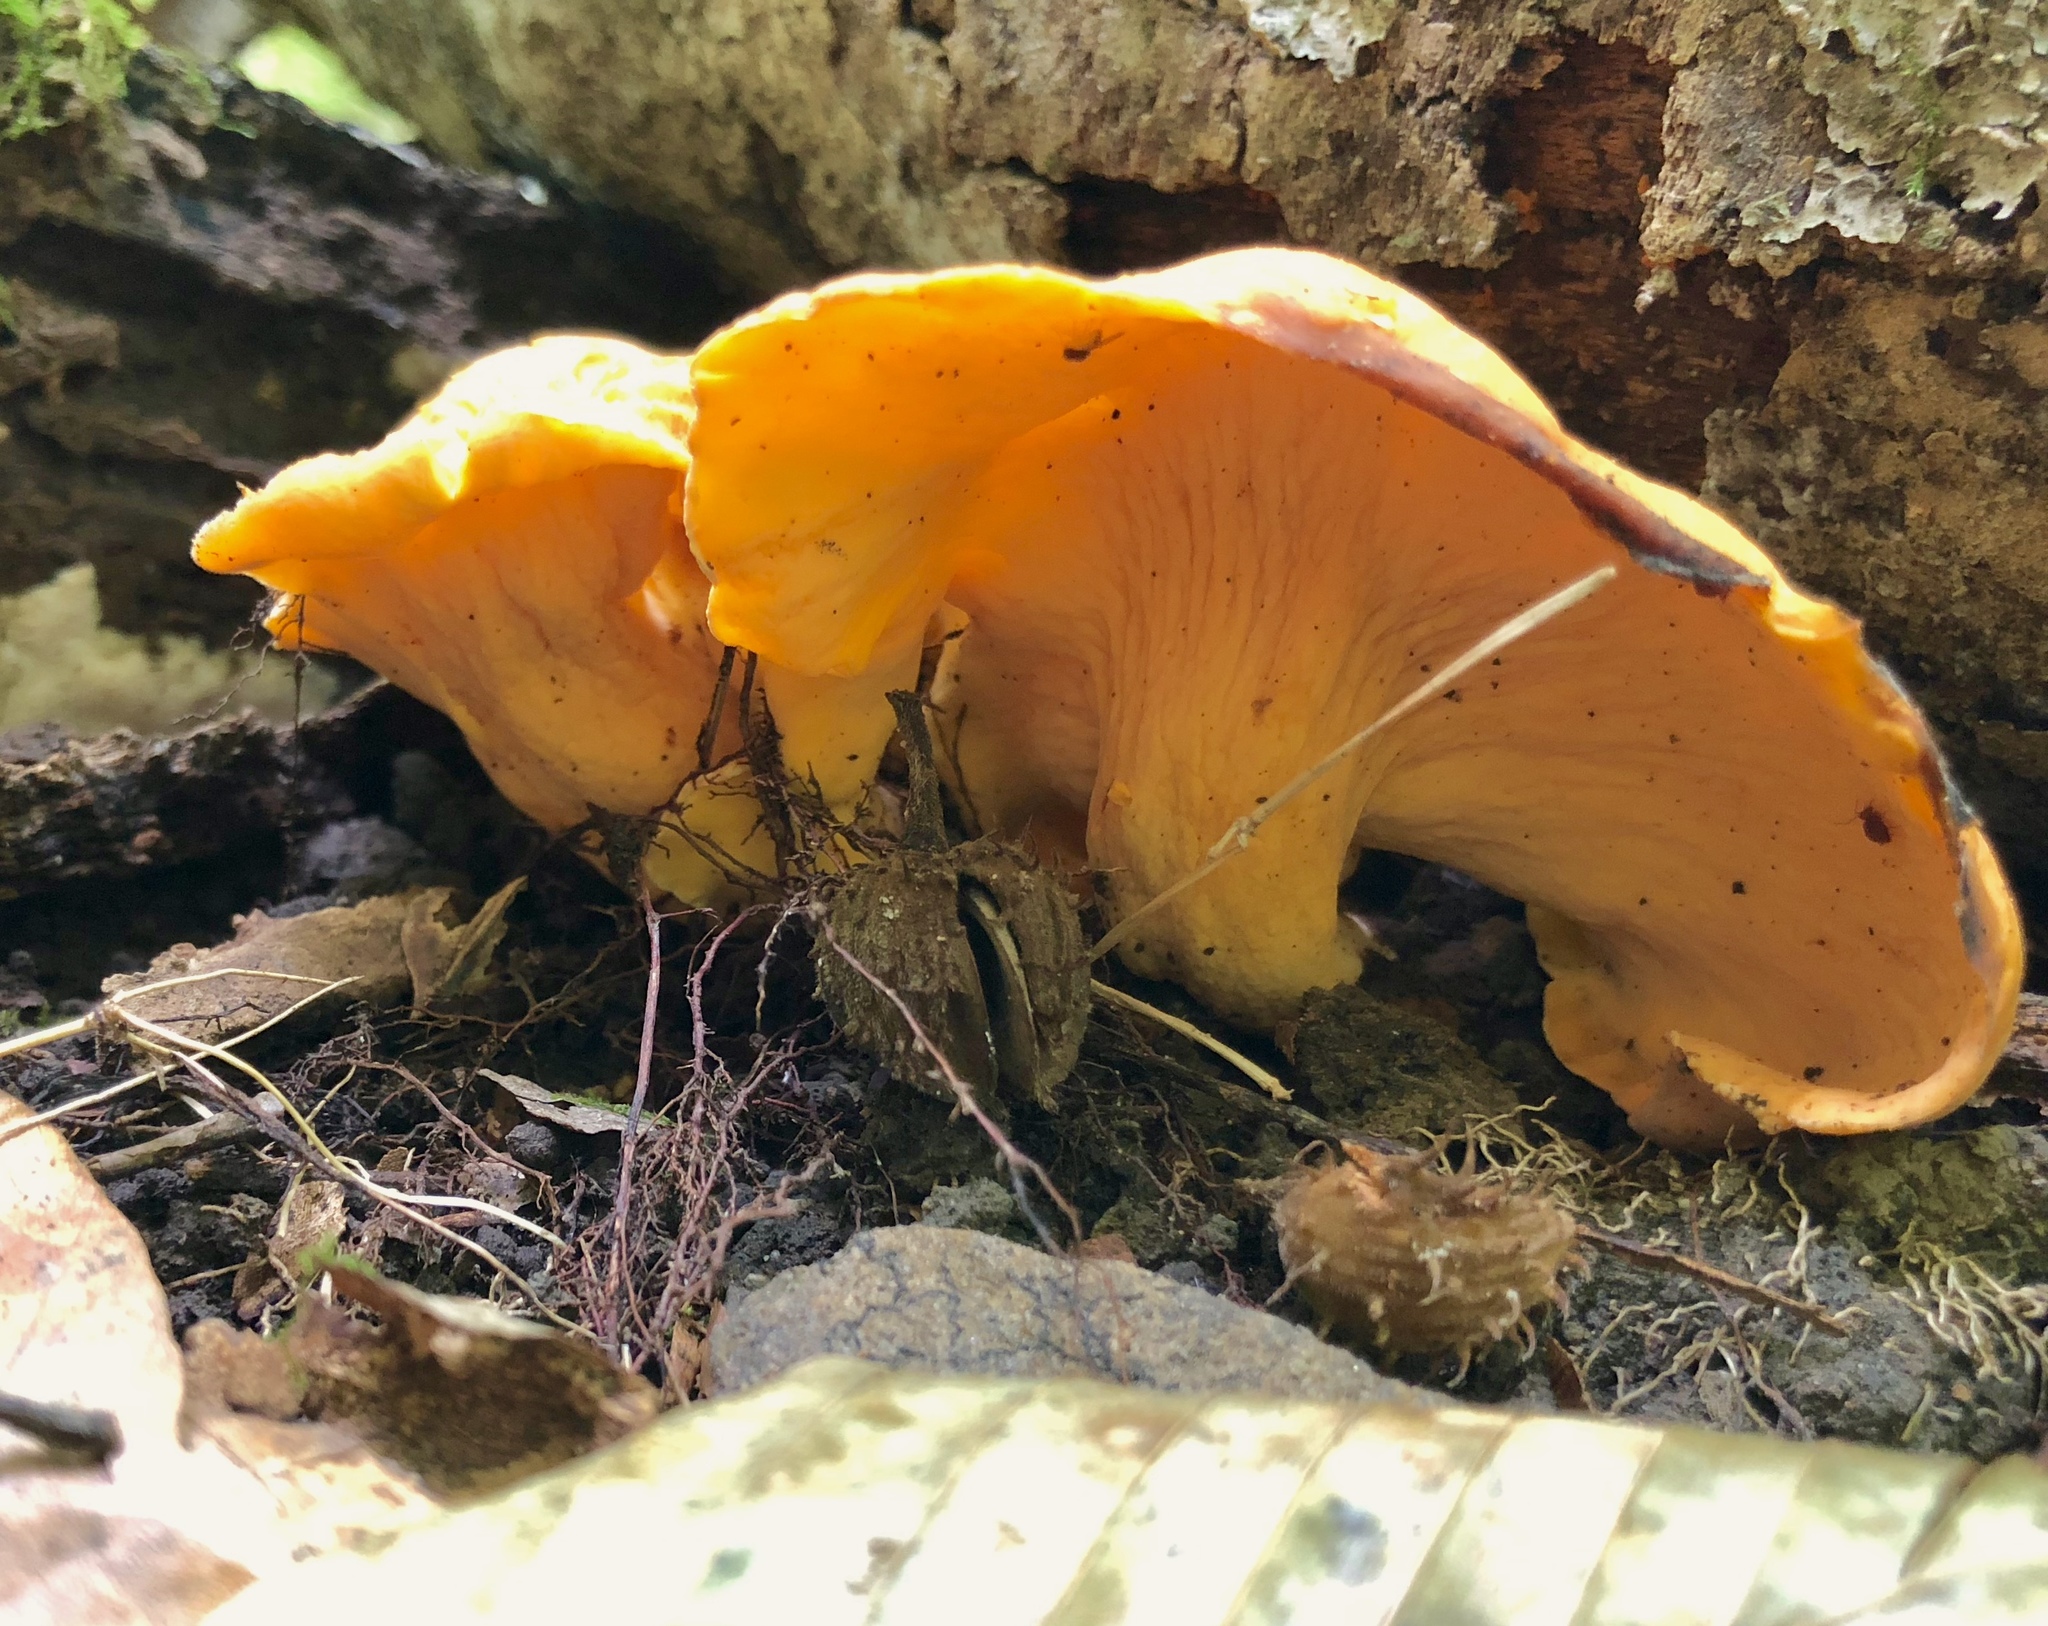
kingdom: Fungi
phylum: Basidiomycota
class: Agaricomycetes
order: Cantharellales
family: Hydnaceae
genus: Cantharellus
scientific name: Cantharellus lateritius
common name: Smooth chanterelle
